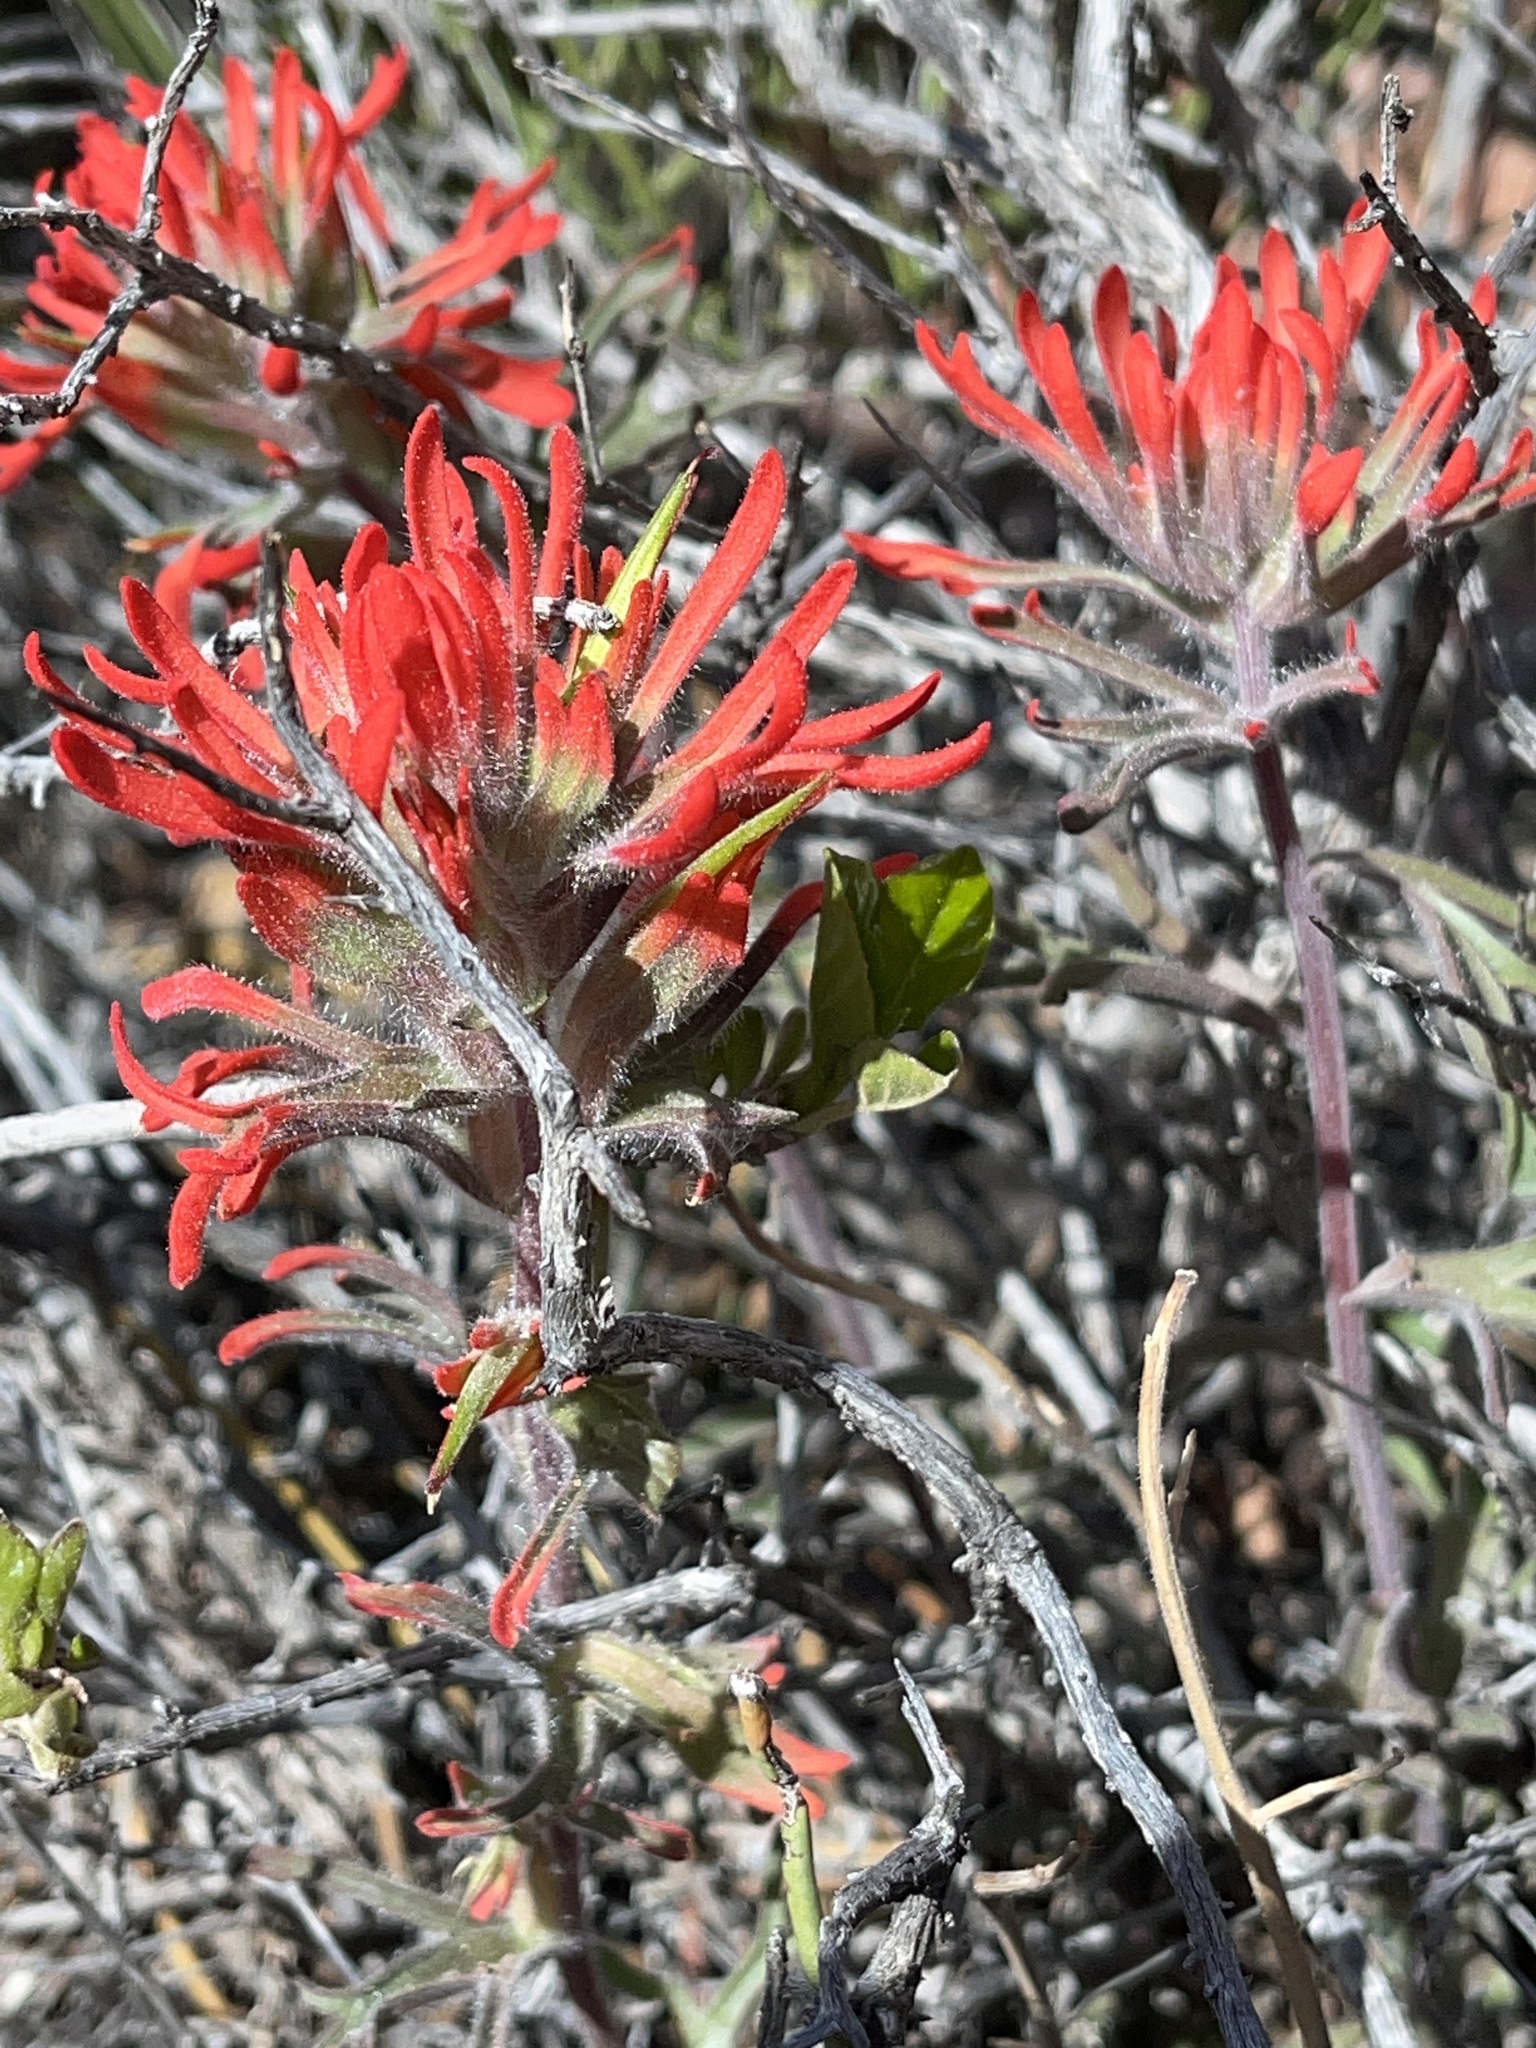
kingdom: Plantae
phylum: Tracheophyta
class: Magnoliopsida
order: Lamiales
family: Orobanchaceae
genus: Castilleja
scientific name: Castilleja chromosa
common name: Desert paintbrush
